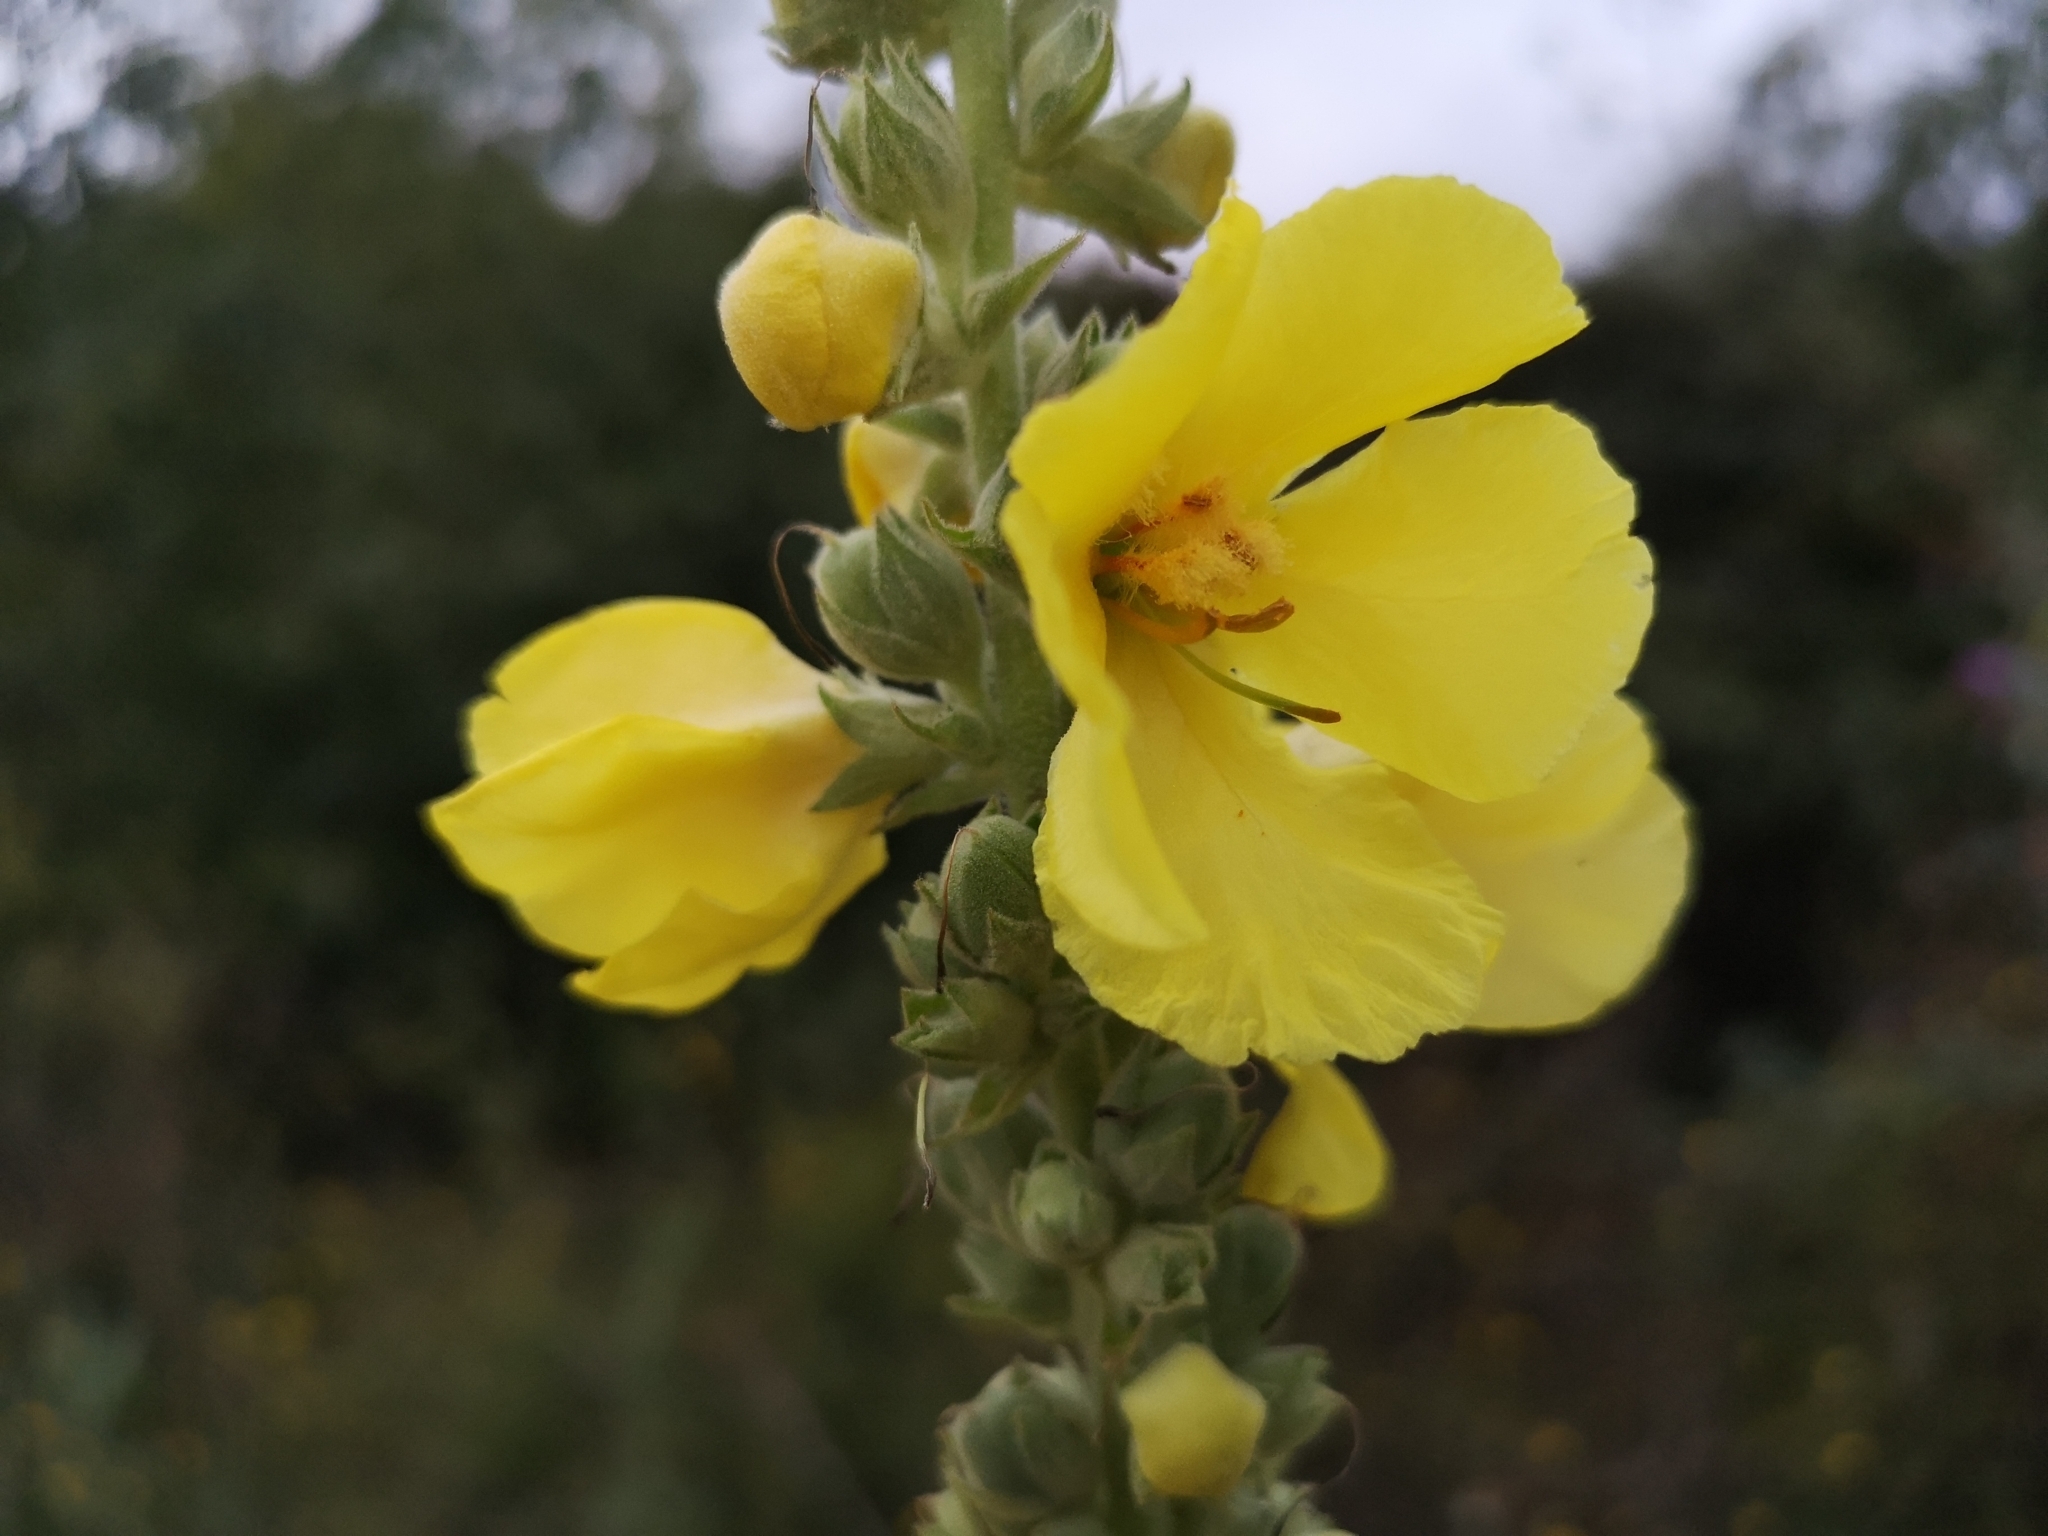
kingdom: Plantae
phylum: Tracheophyta
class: Magnoliopsida
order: Lamiales
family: Scrophulariaceae
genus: Verbascum
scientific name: Verbascum thapsus
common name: Common mullein
